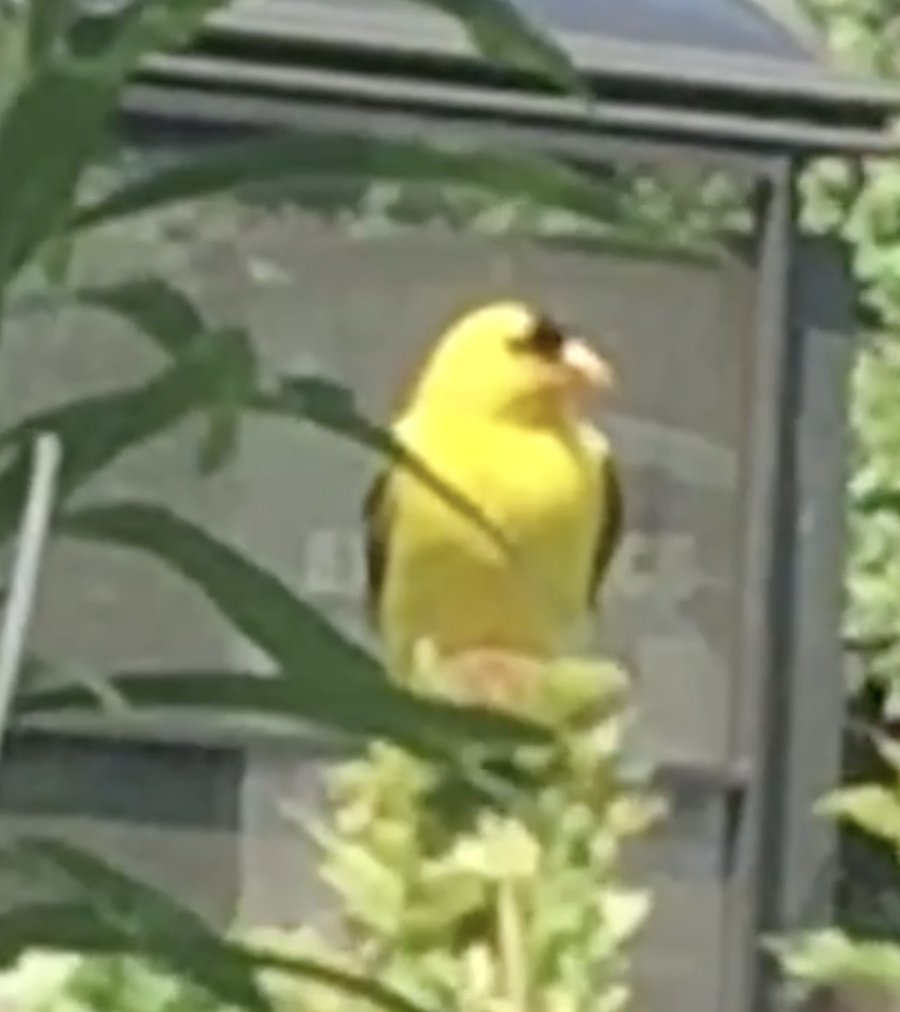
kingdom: Animalia
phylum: Chordata
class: Aves
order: Passeriformes
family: Fringillidae
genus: Spinus
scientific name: Spinus tristis
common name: American goldfinch
